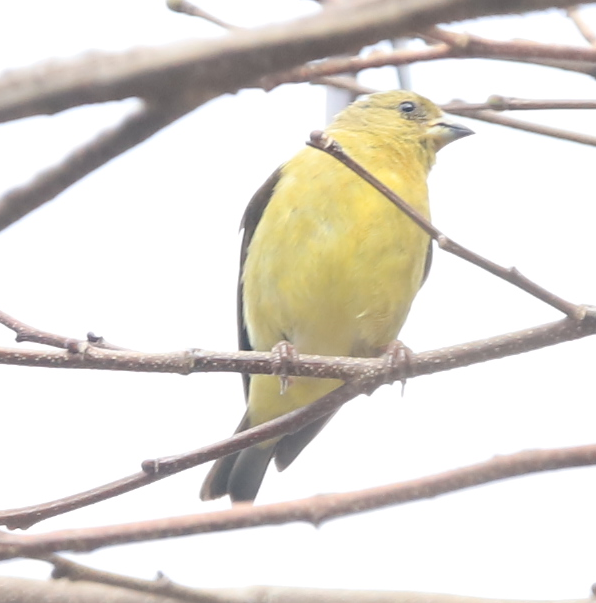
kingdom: Animalia
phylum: Chordata
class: Aves
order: Passeriformes
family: Fringillidae
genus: Spinus
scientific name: Spinus psaltria
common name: Lesser goldfinch
